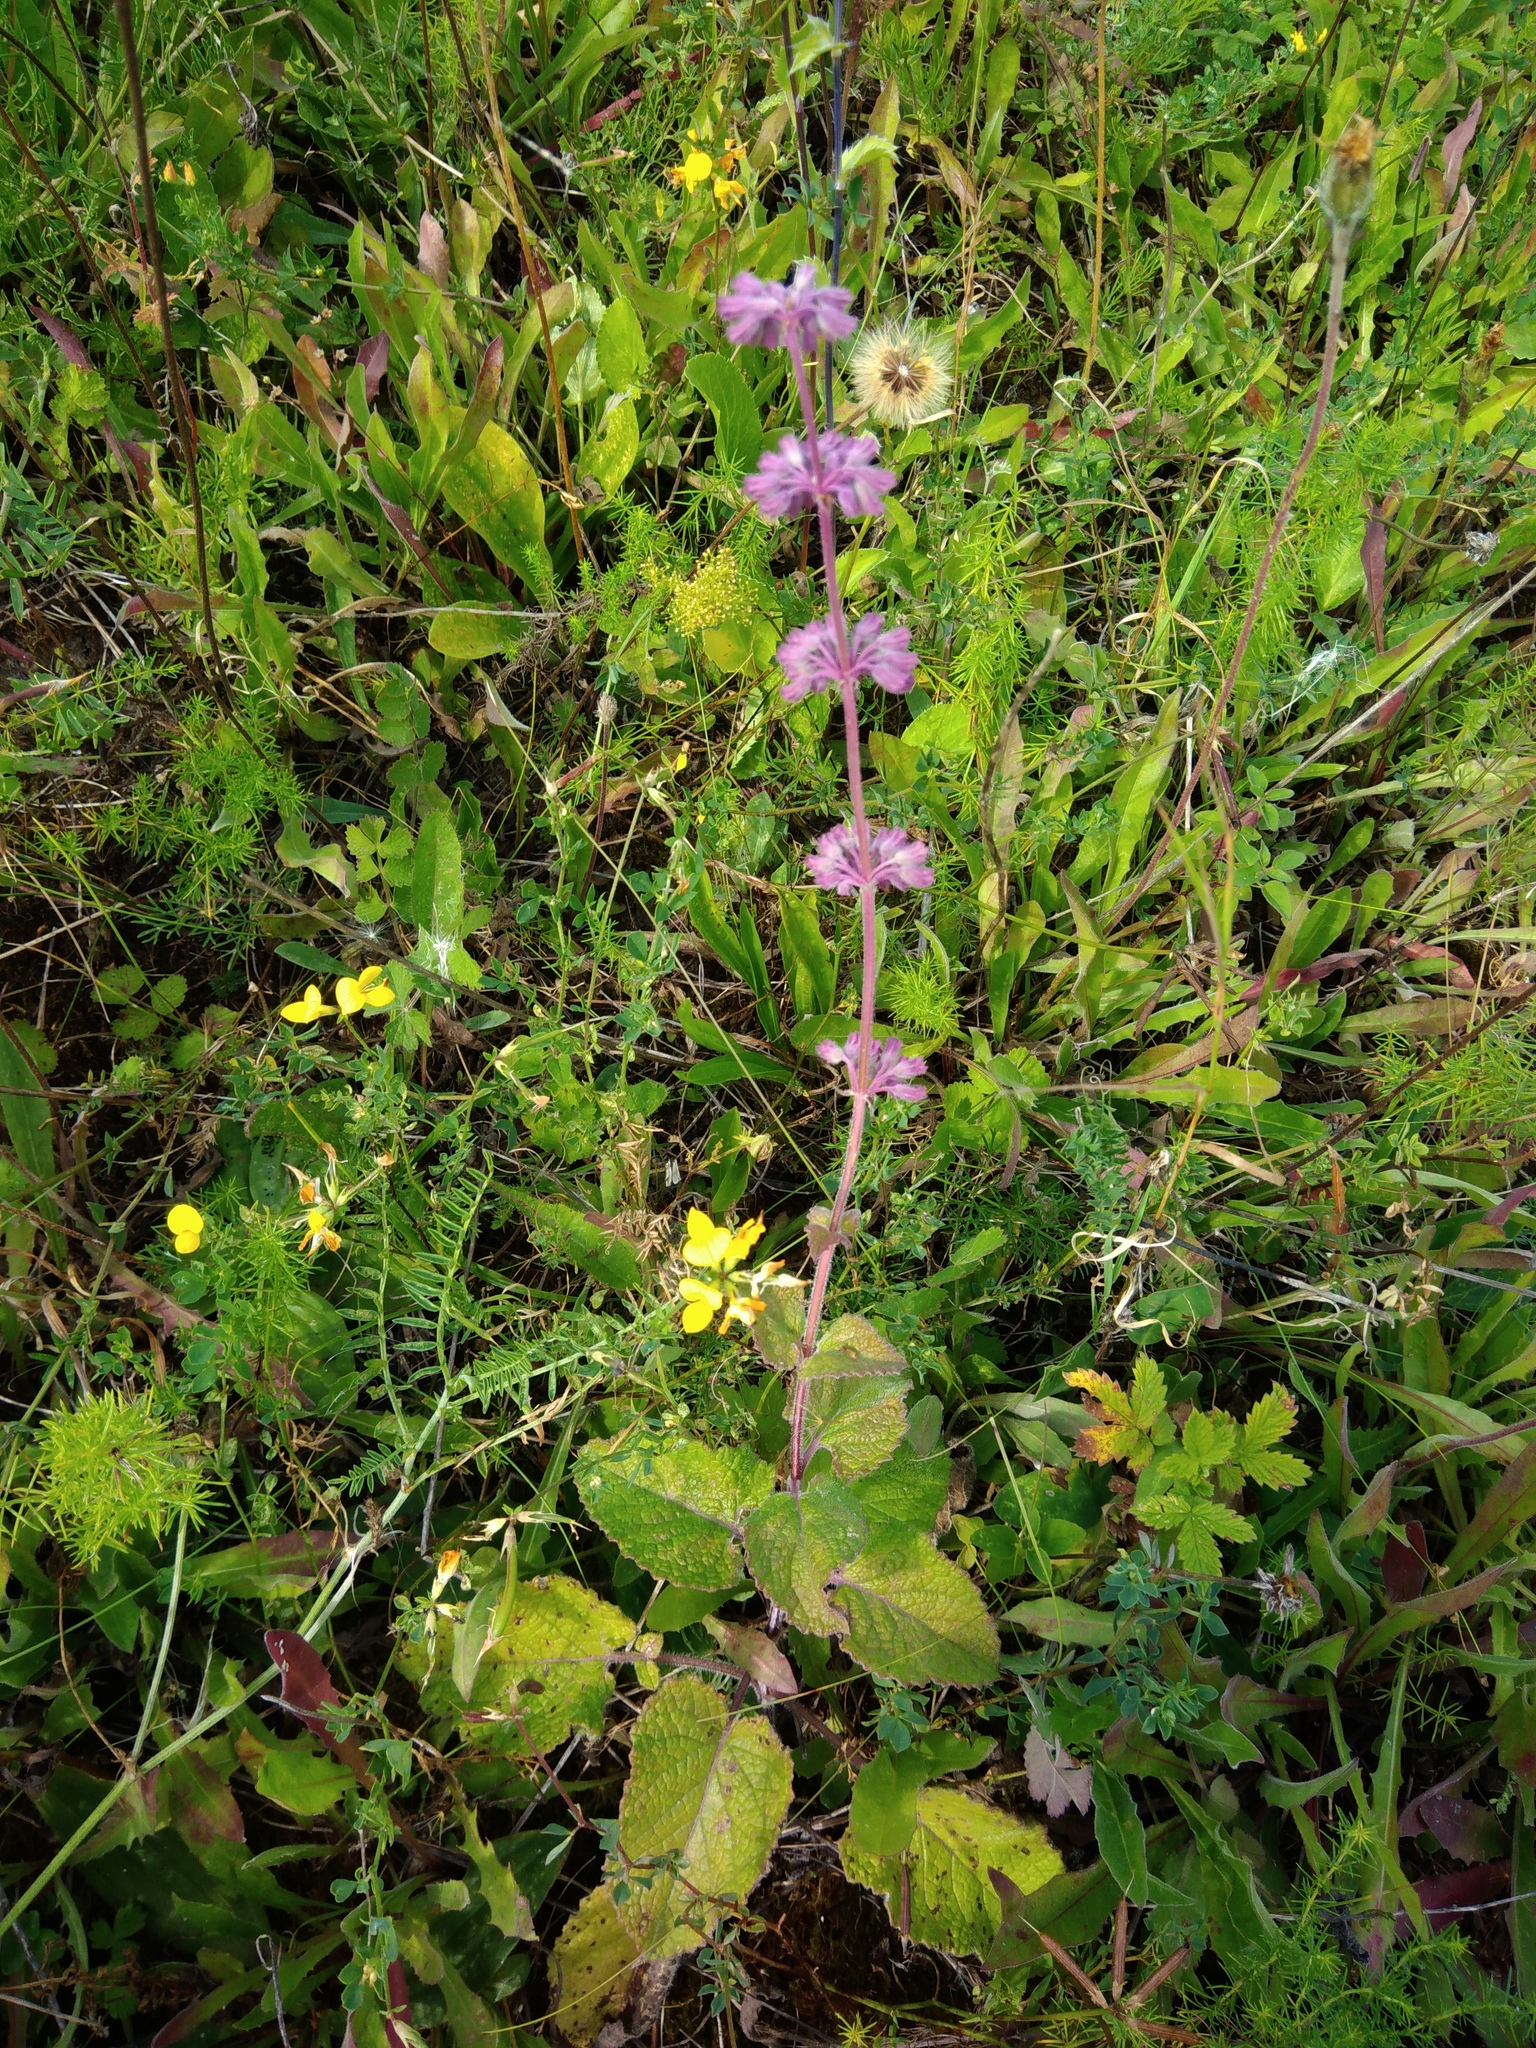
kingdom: Plantae
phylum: Tracheophyta
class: Magnoliopsida
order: Lamiales
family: Lamiaceae
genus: Salvia
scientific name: Salvia verticillata
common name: Whorled clary
